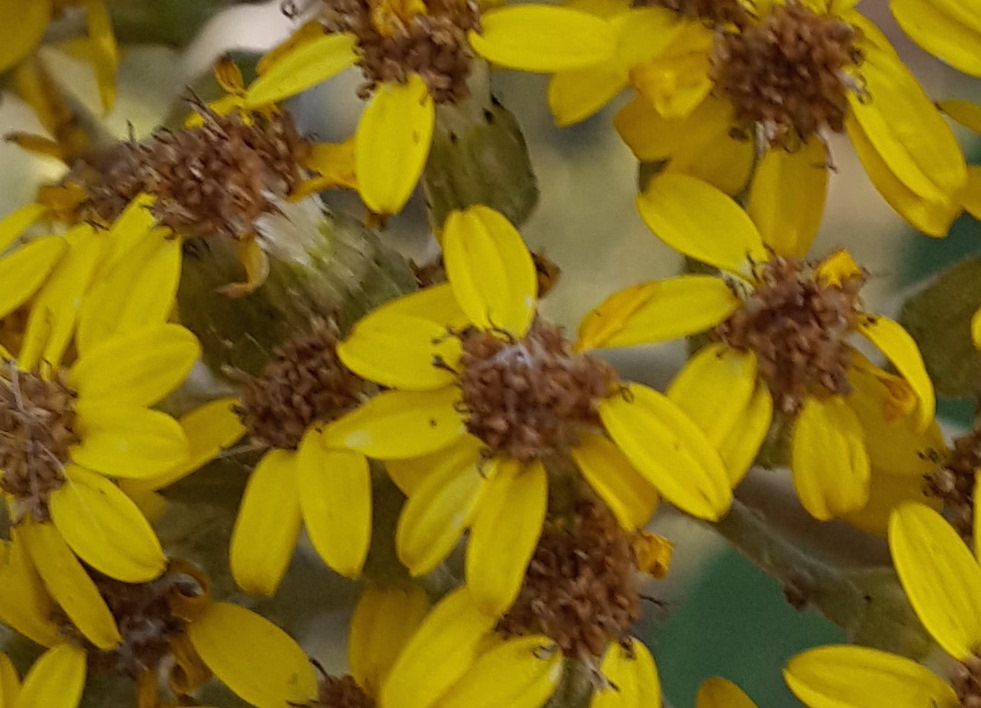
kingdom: Plantae
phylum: Tracheophyta
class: Magnoliopsida
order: Asterales
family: Asteraceae
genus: Roldana
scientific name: Roldana barba-johannis
